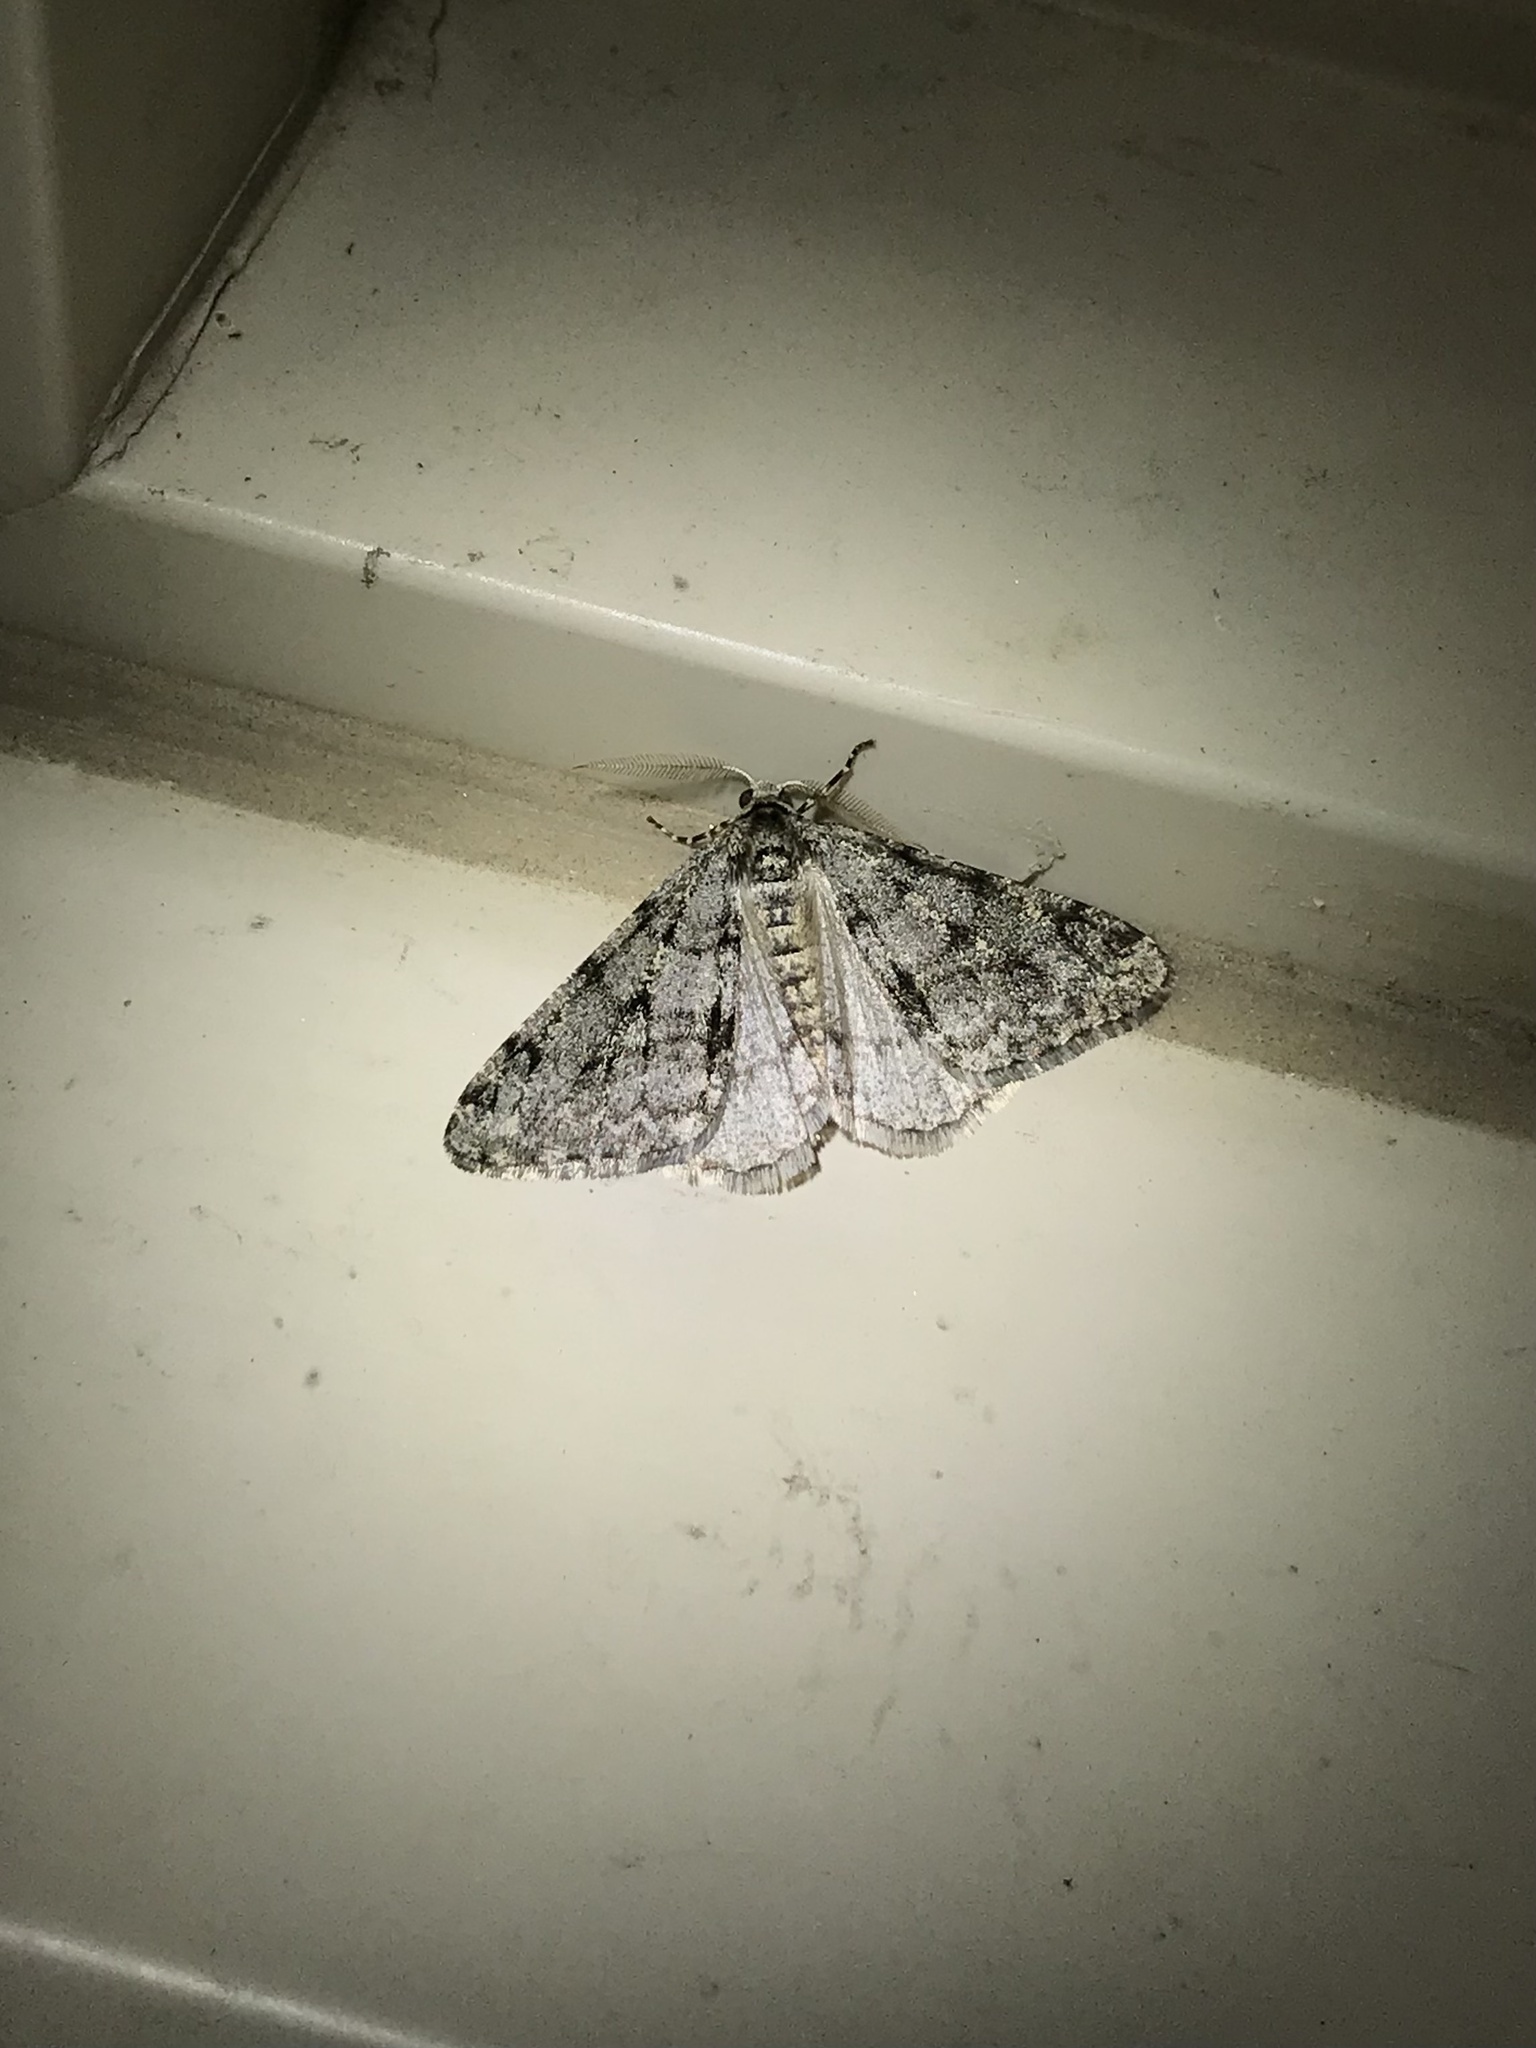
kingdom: Animalia
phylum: Arthropoda
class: Insecta
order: Lepidoptera
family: Geometridae
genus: Phigalia
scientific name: Phigalia strigataria
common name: Small phigalia
